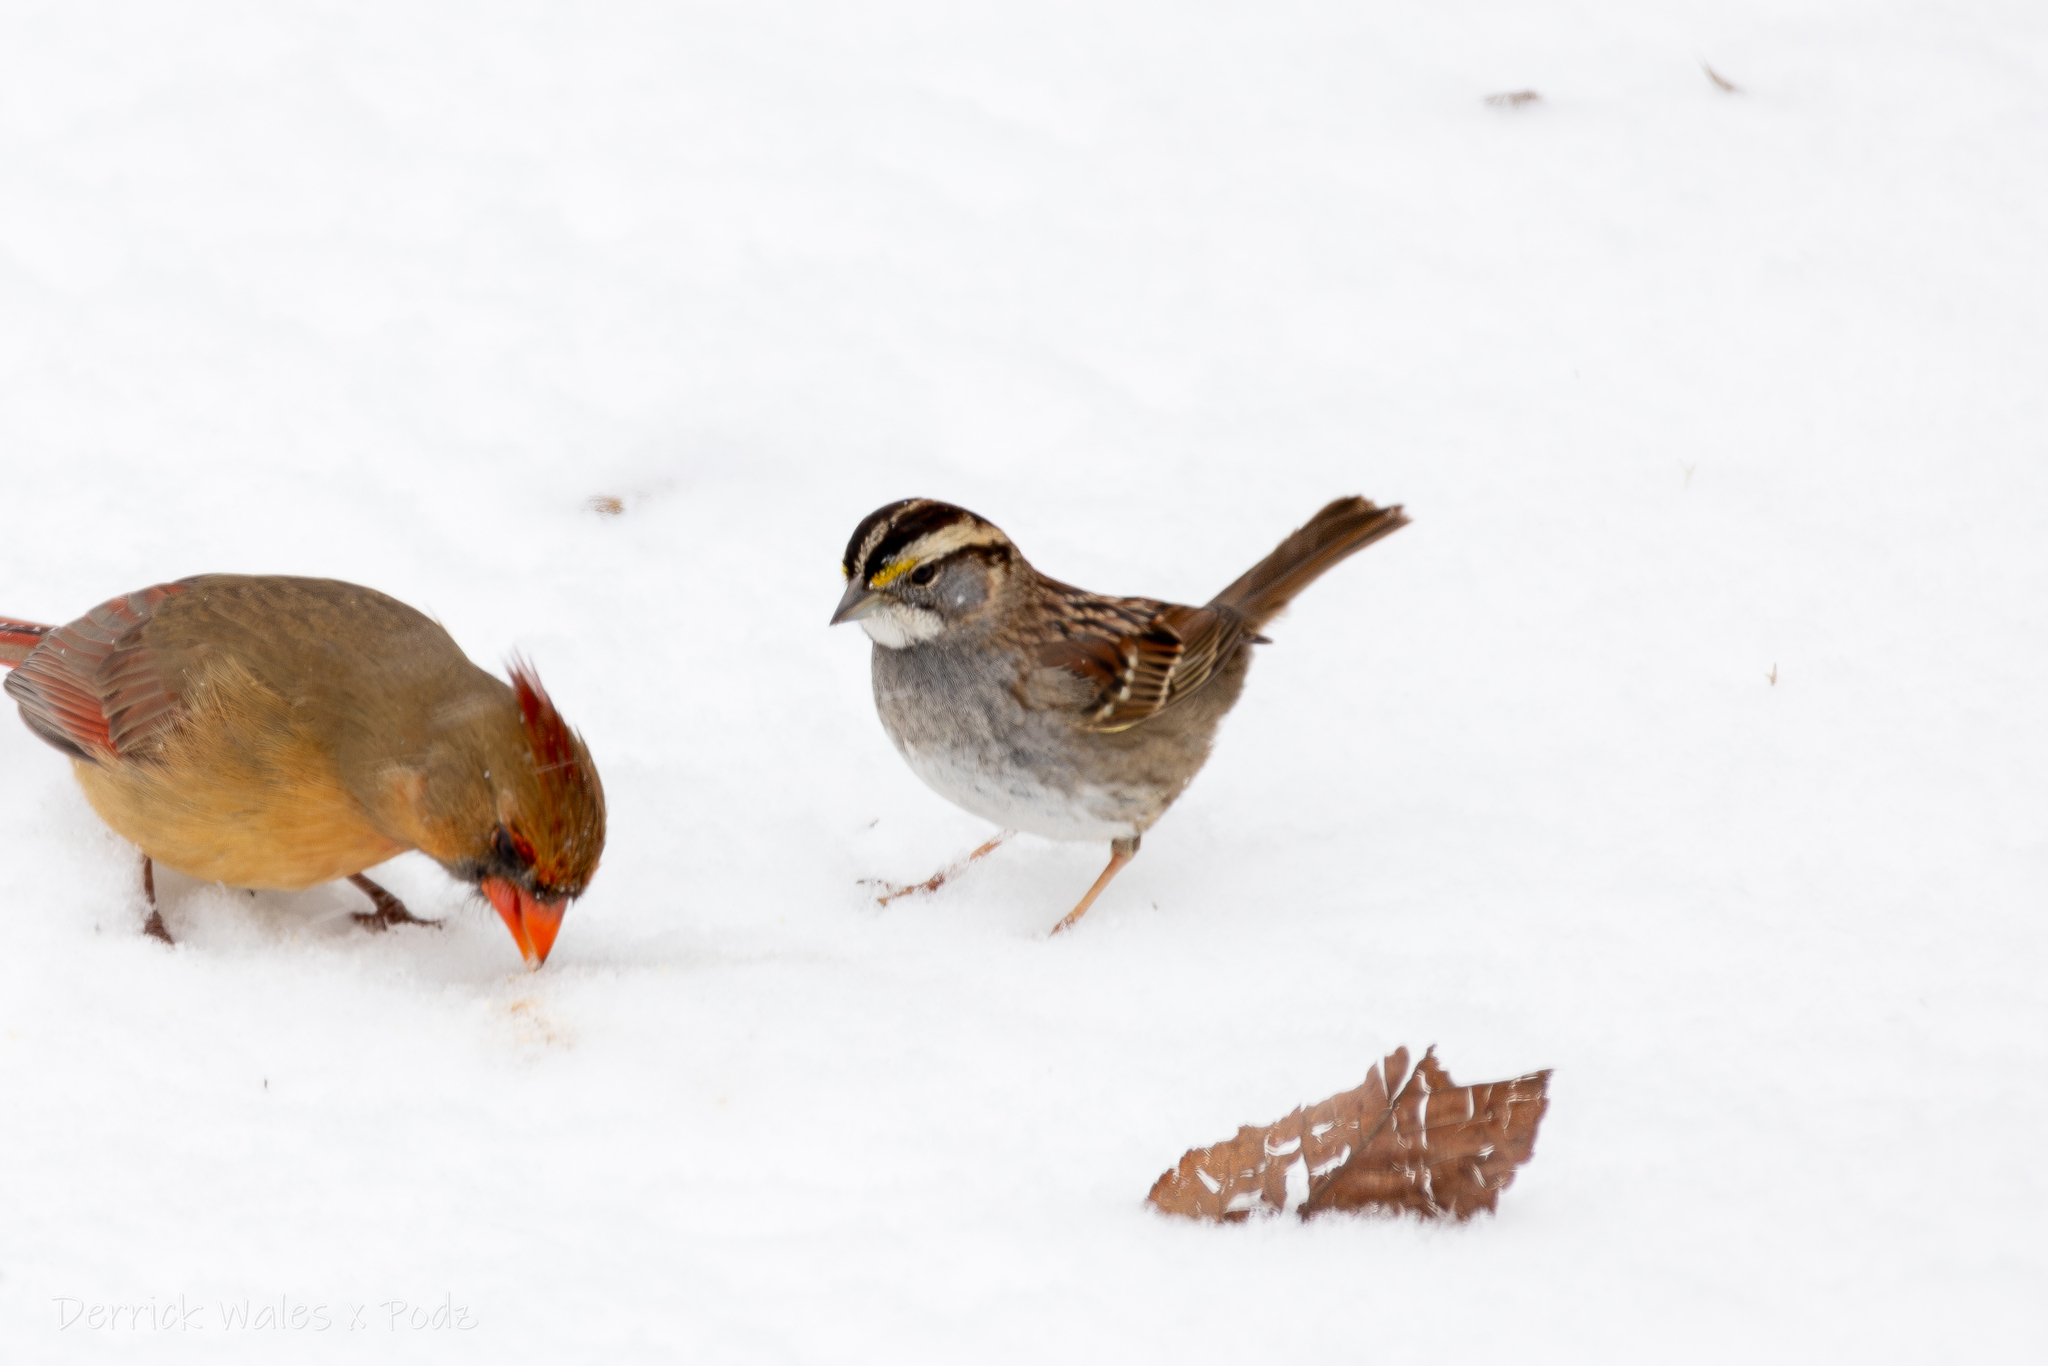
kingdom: Animalia
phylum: Chordata
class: Aves
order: Passeriformes
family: Passerellidae
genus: Zonotrichia
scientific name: Zonotrichia albicollis
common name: White-throated sparrow
